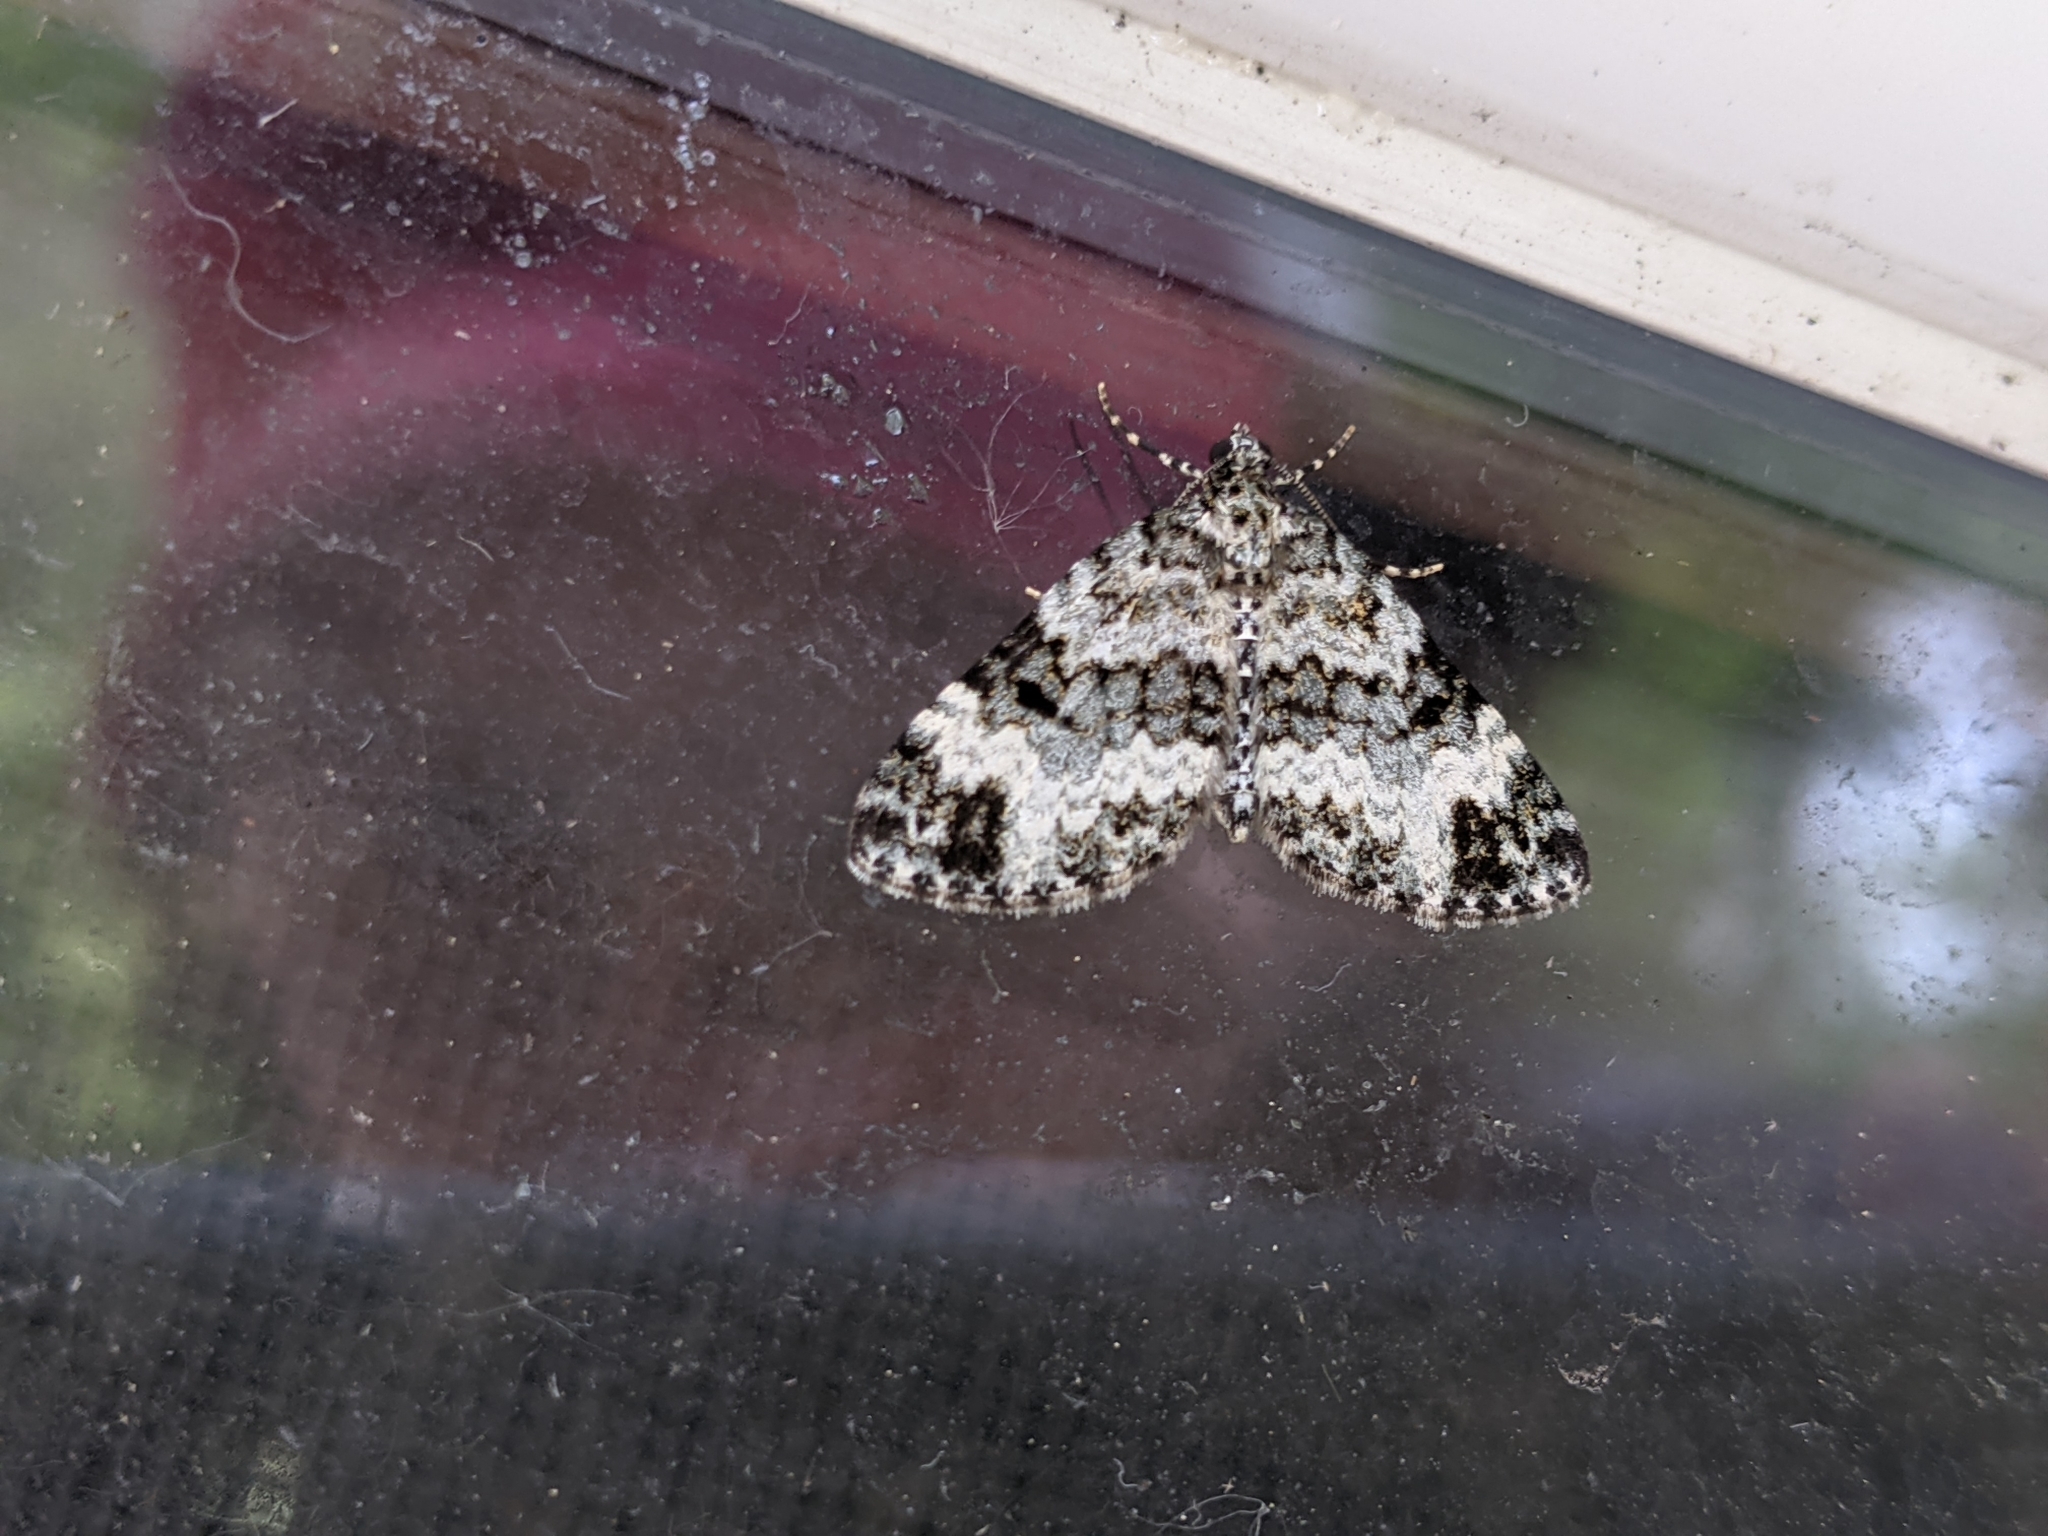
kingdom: Animalia
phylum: Arthropoda
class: Insecta
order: Lepidoptera
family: Geometridae
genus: Spargania
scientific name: Spargania magnoliata
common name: Double-banded carpet
